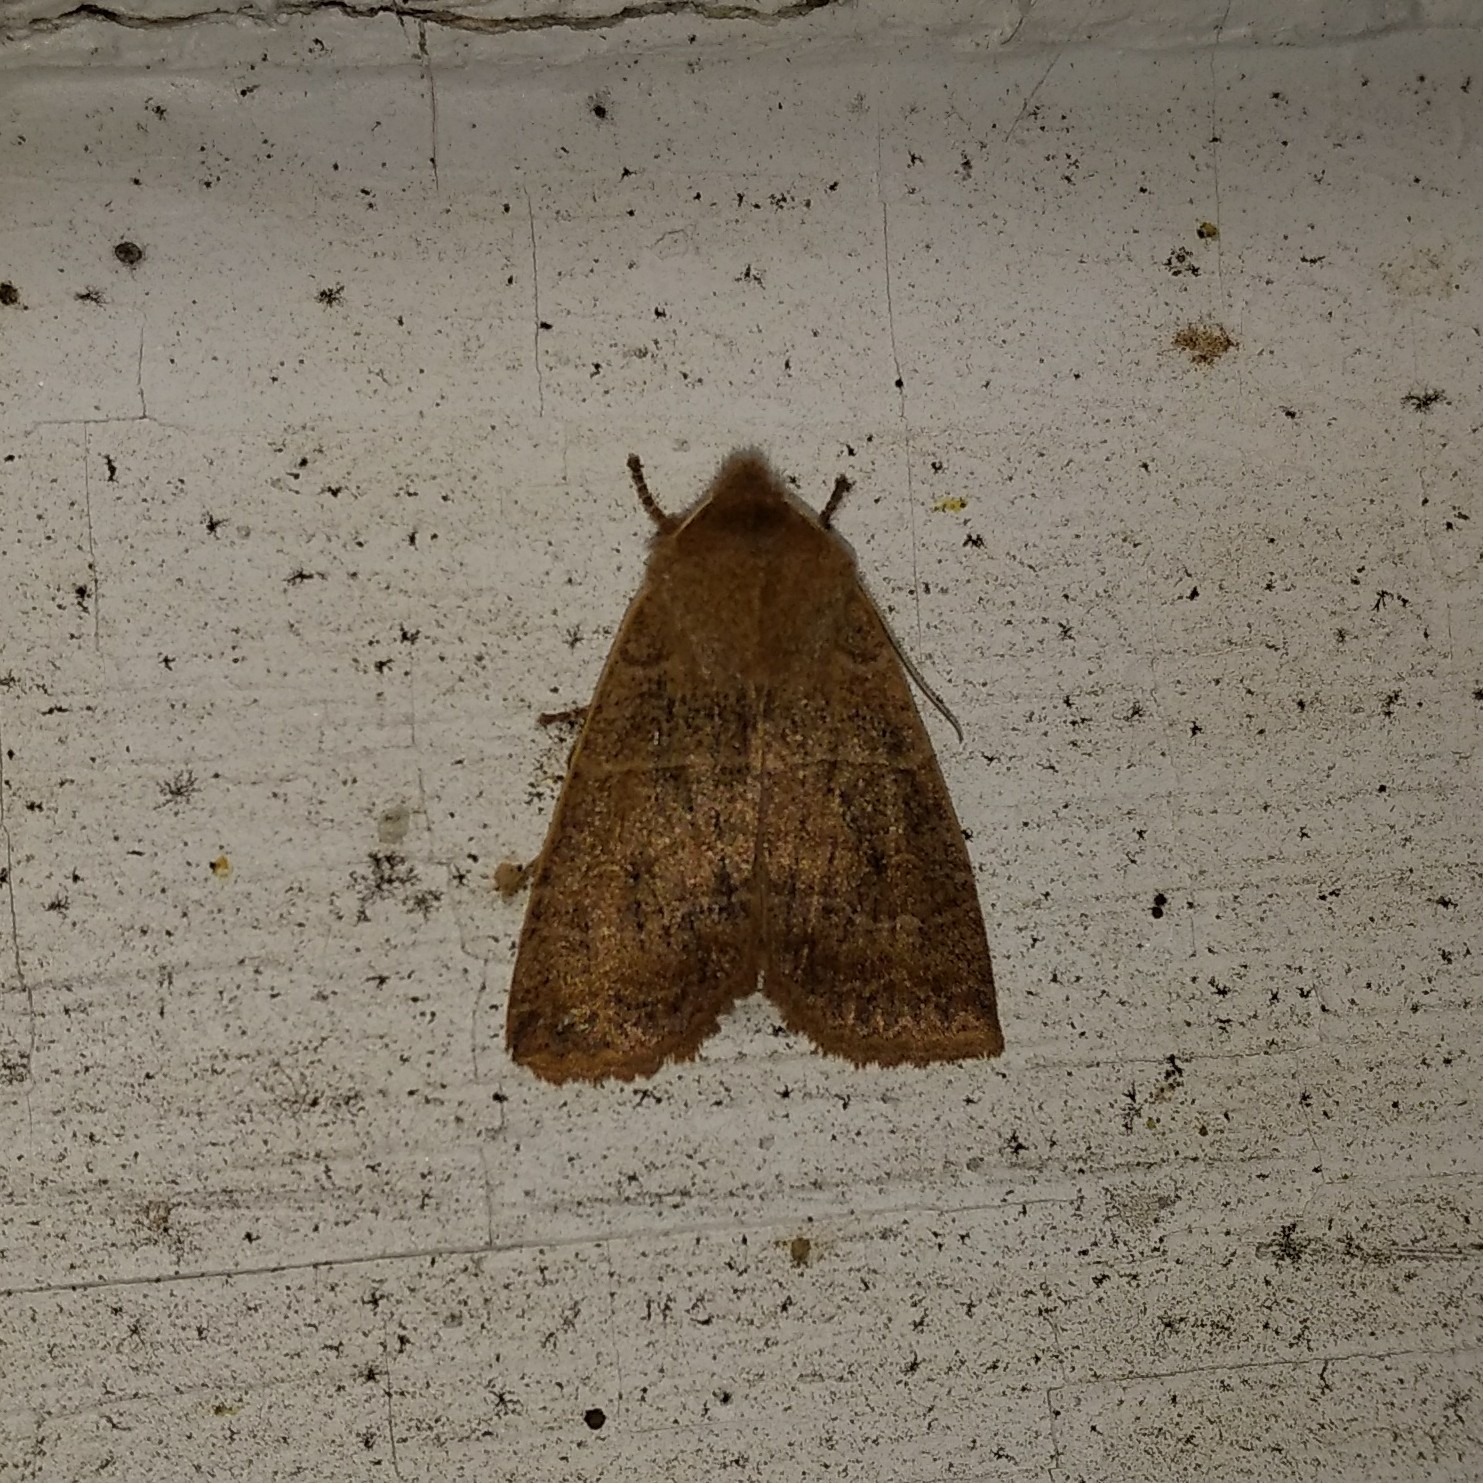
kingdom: Animalia
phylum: Arthropoda
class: Insecta
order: Lepidoptera
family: Noctuidae
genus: Eupsilia
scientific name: Eupsilia morrisoni
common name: Morrison's sallow
